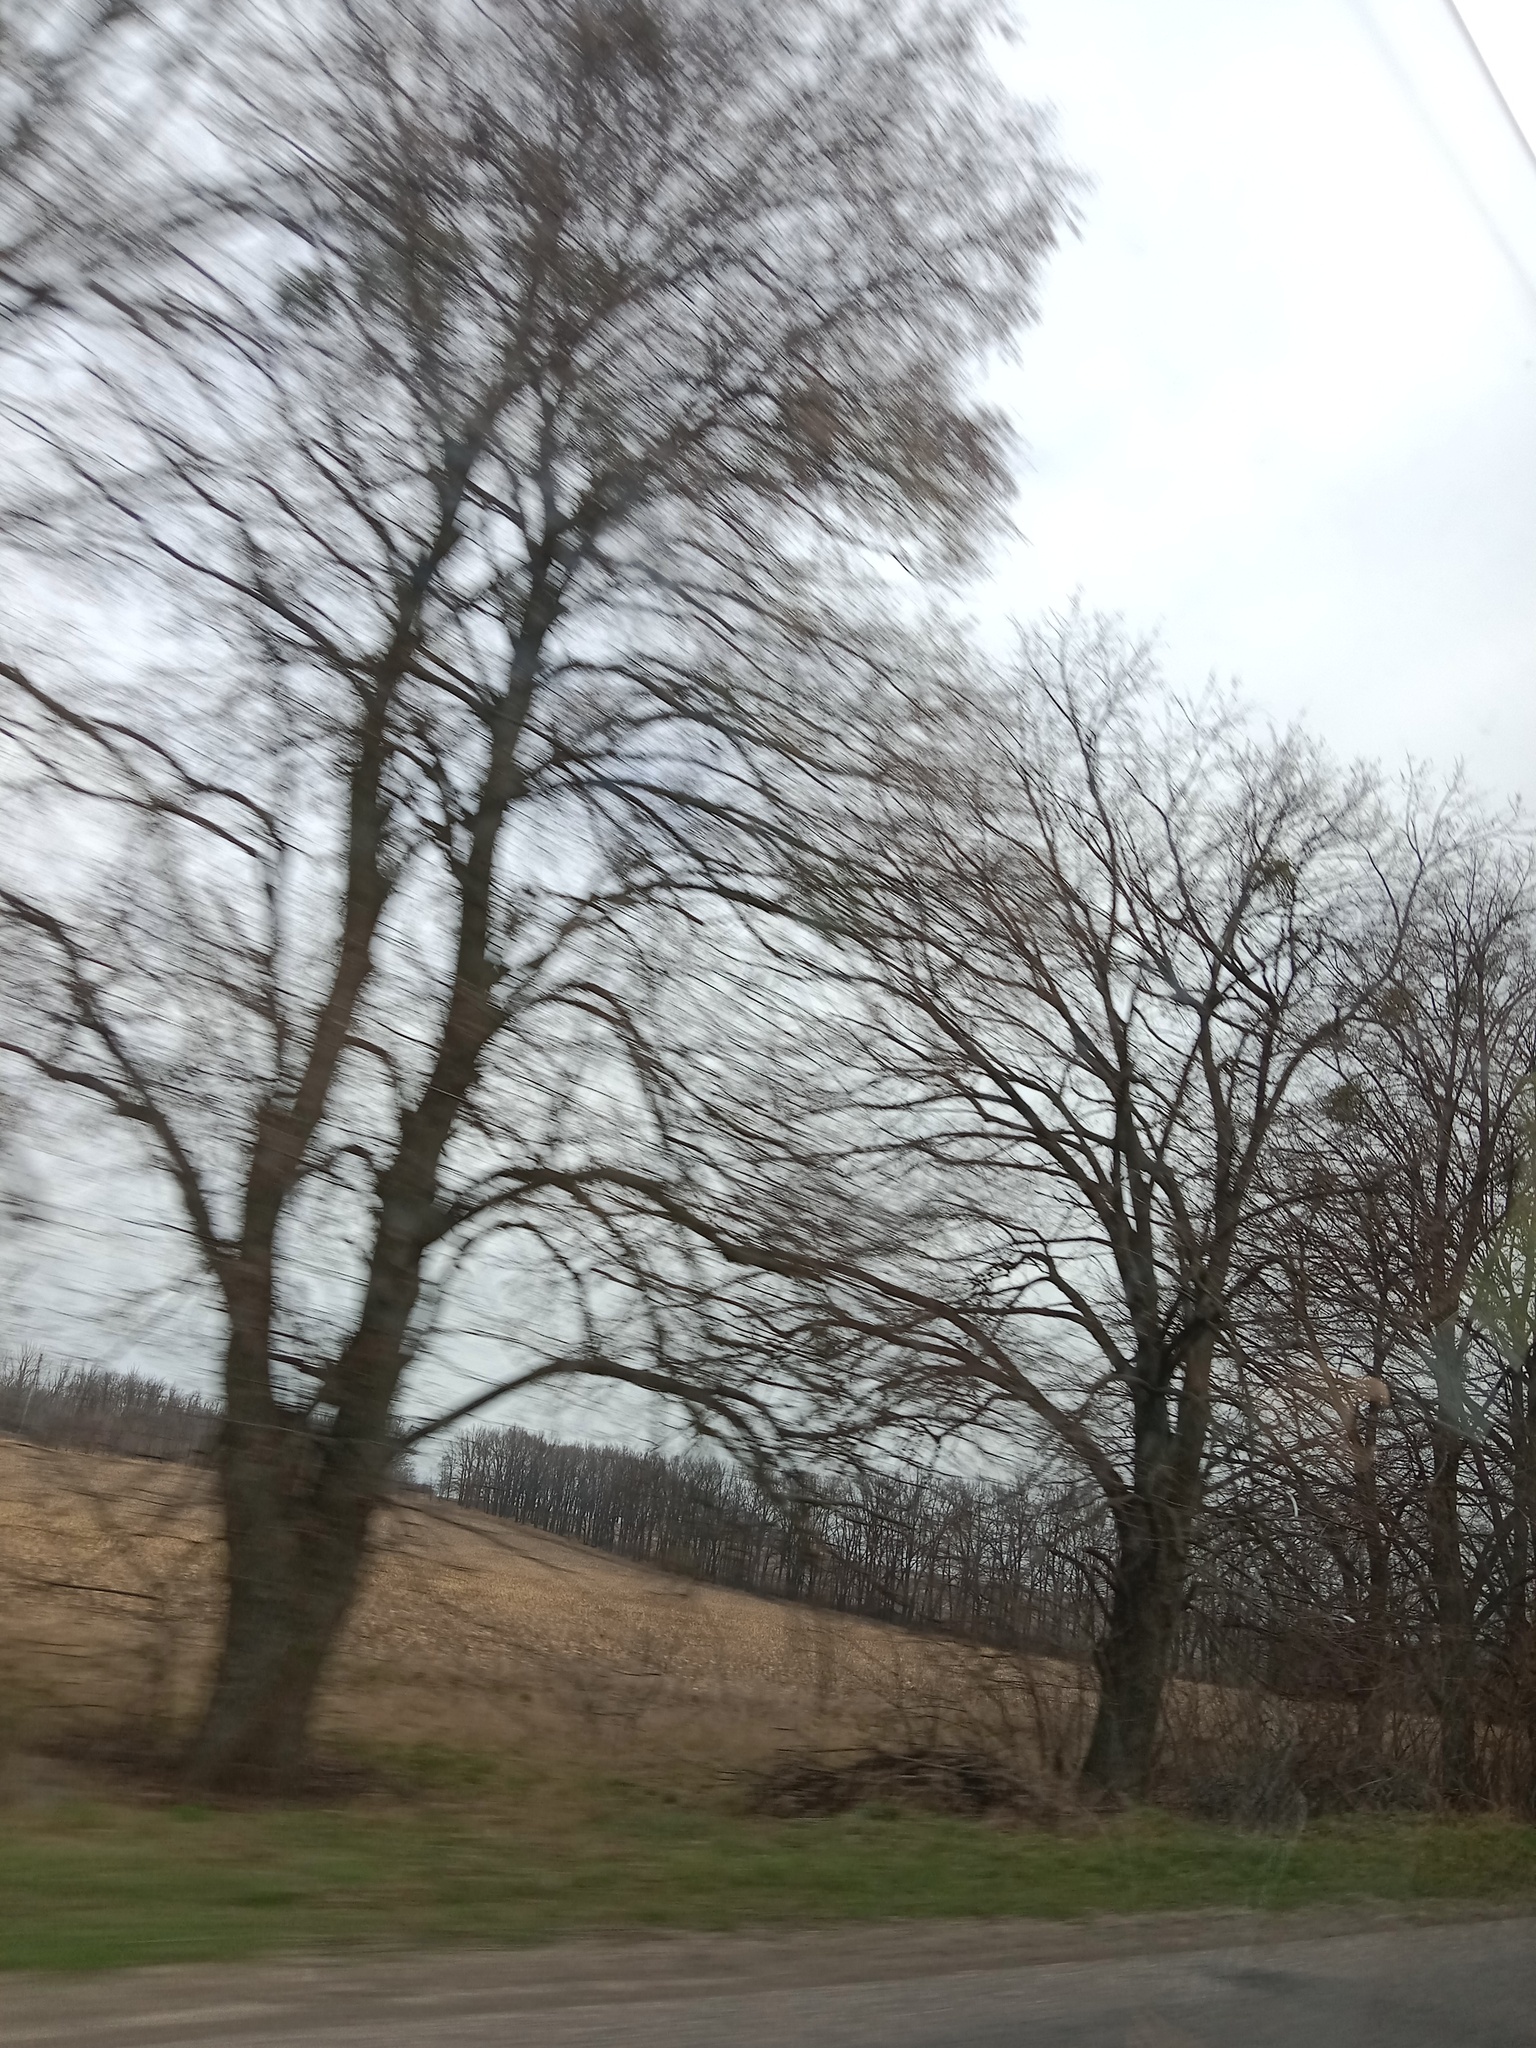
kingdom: Plantae
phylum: Tracheophyta
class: Magnoliopsida
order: Santalales
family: Viscaceae
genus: Viscum
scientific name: Viscum album
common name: Mistletoe
